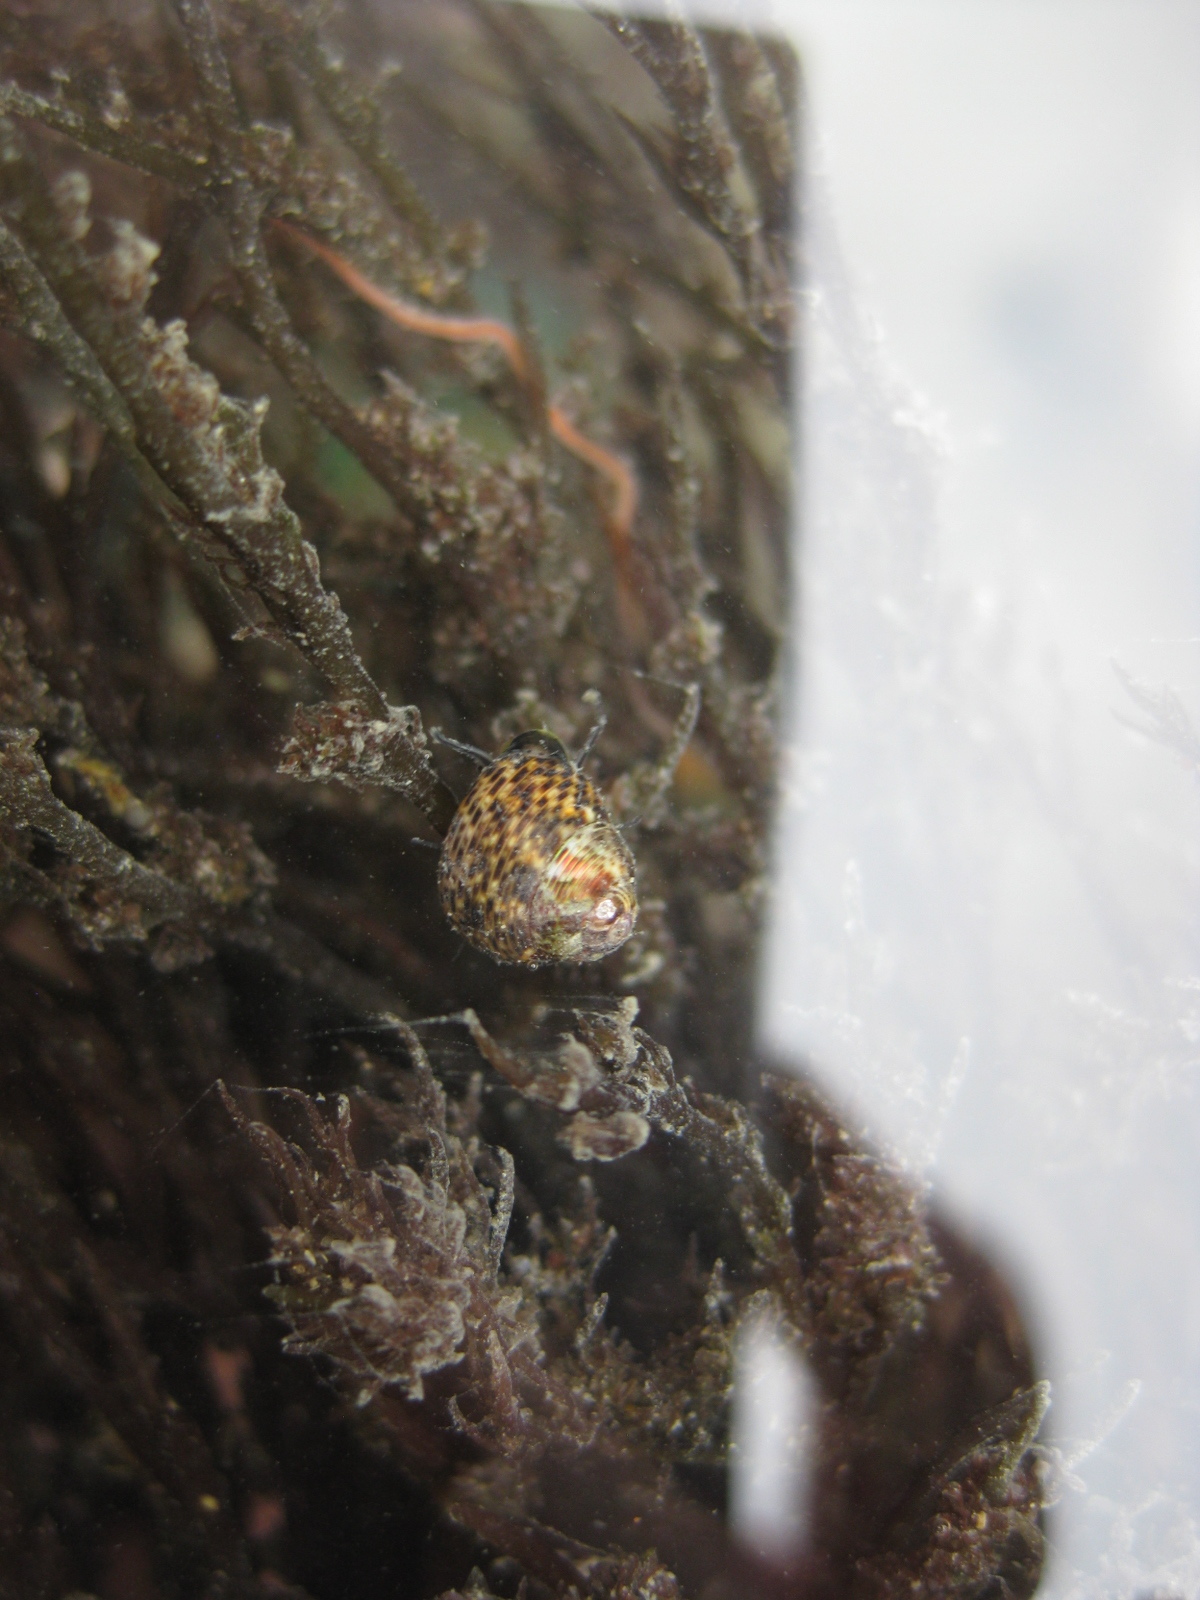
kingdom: Animalia
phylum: Mollusca
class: Gastropoda
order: Trochida
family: Trochidae
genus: Micrelenchus
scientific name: Micrelenchus tessellatus
